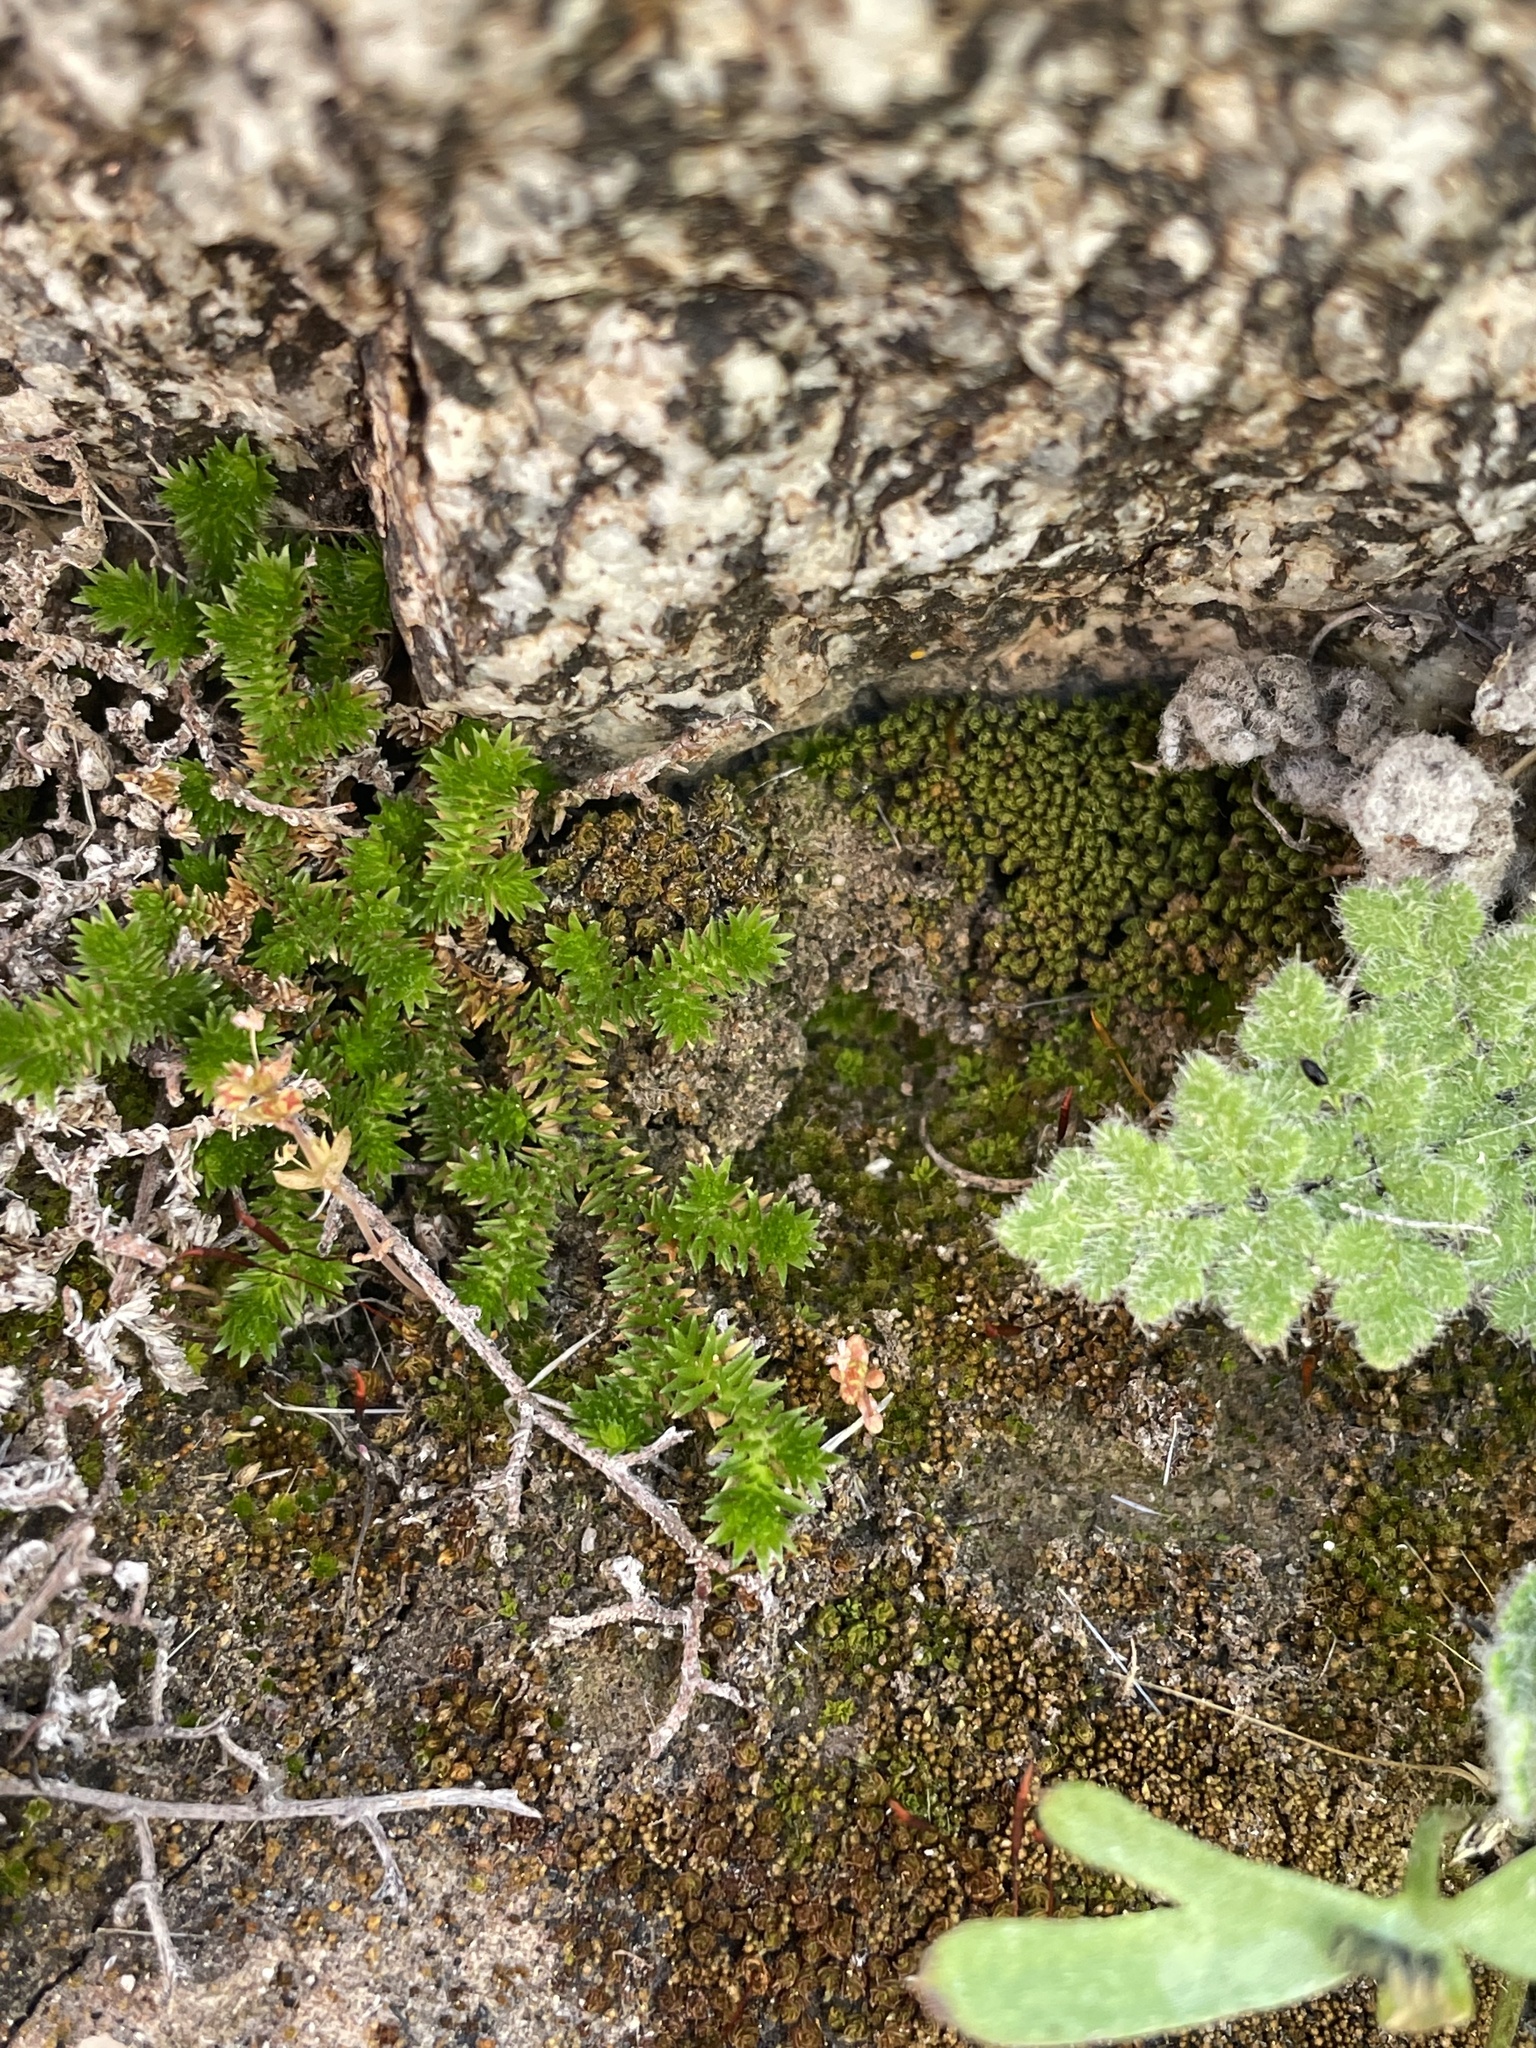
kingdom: Plantae
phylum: Tracheophyta
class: Lycopodiopsida
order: Selaginellales
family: Selaginellaceae
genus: Selaginella
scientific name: Selaginella eremophila
